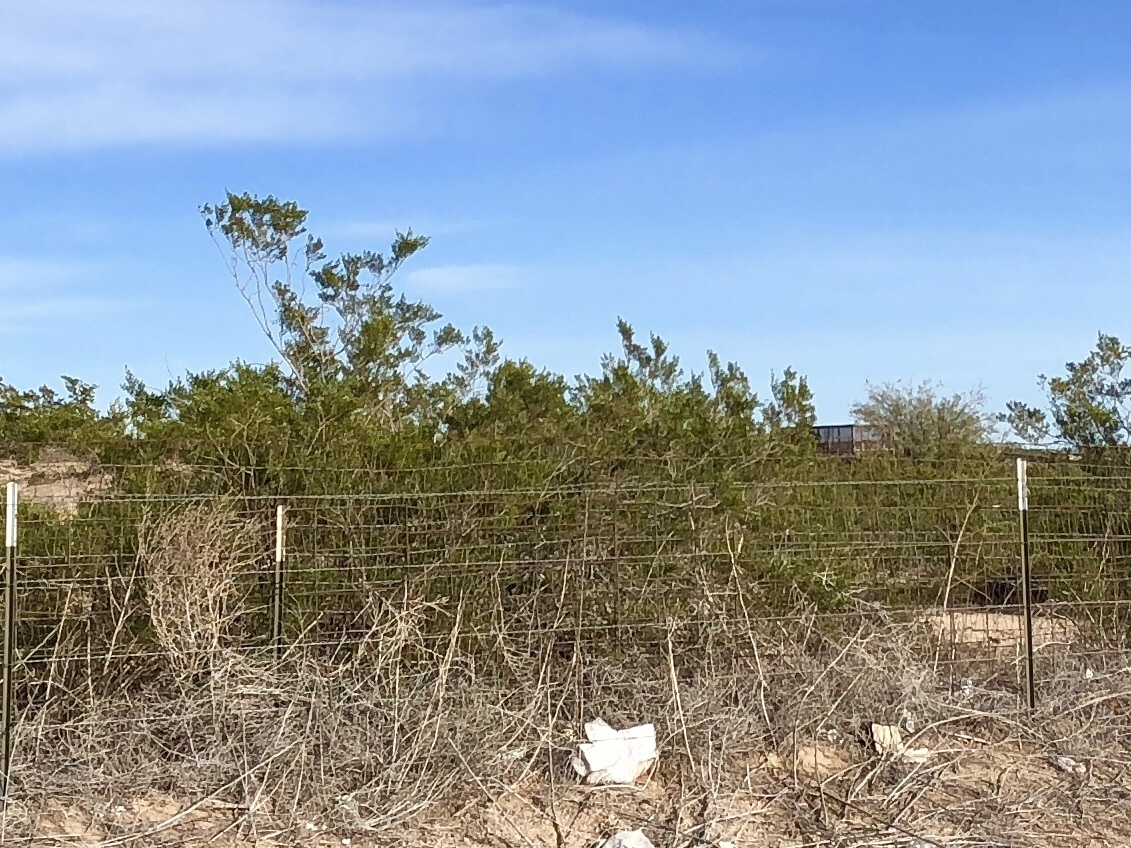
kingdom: Plantae
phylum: Tracheophyta
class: Magnoliopsida
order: Zygophyllales
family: Zygophyllaceae
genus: Larrea
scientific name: Larrea tridentata
